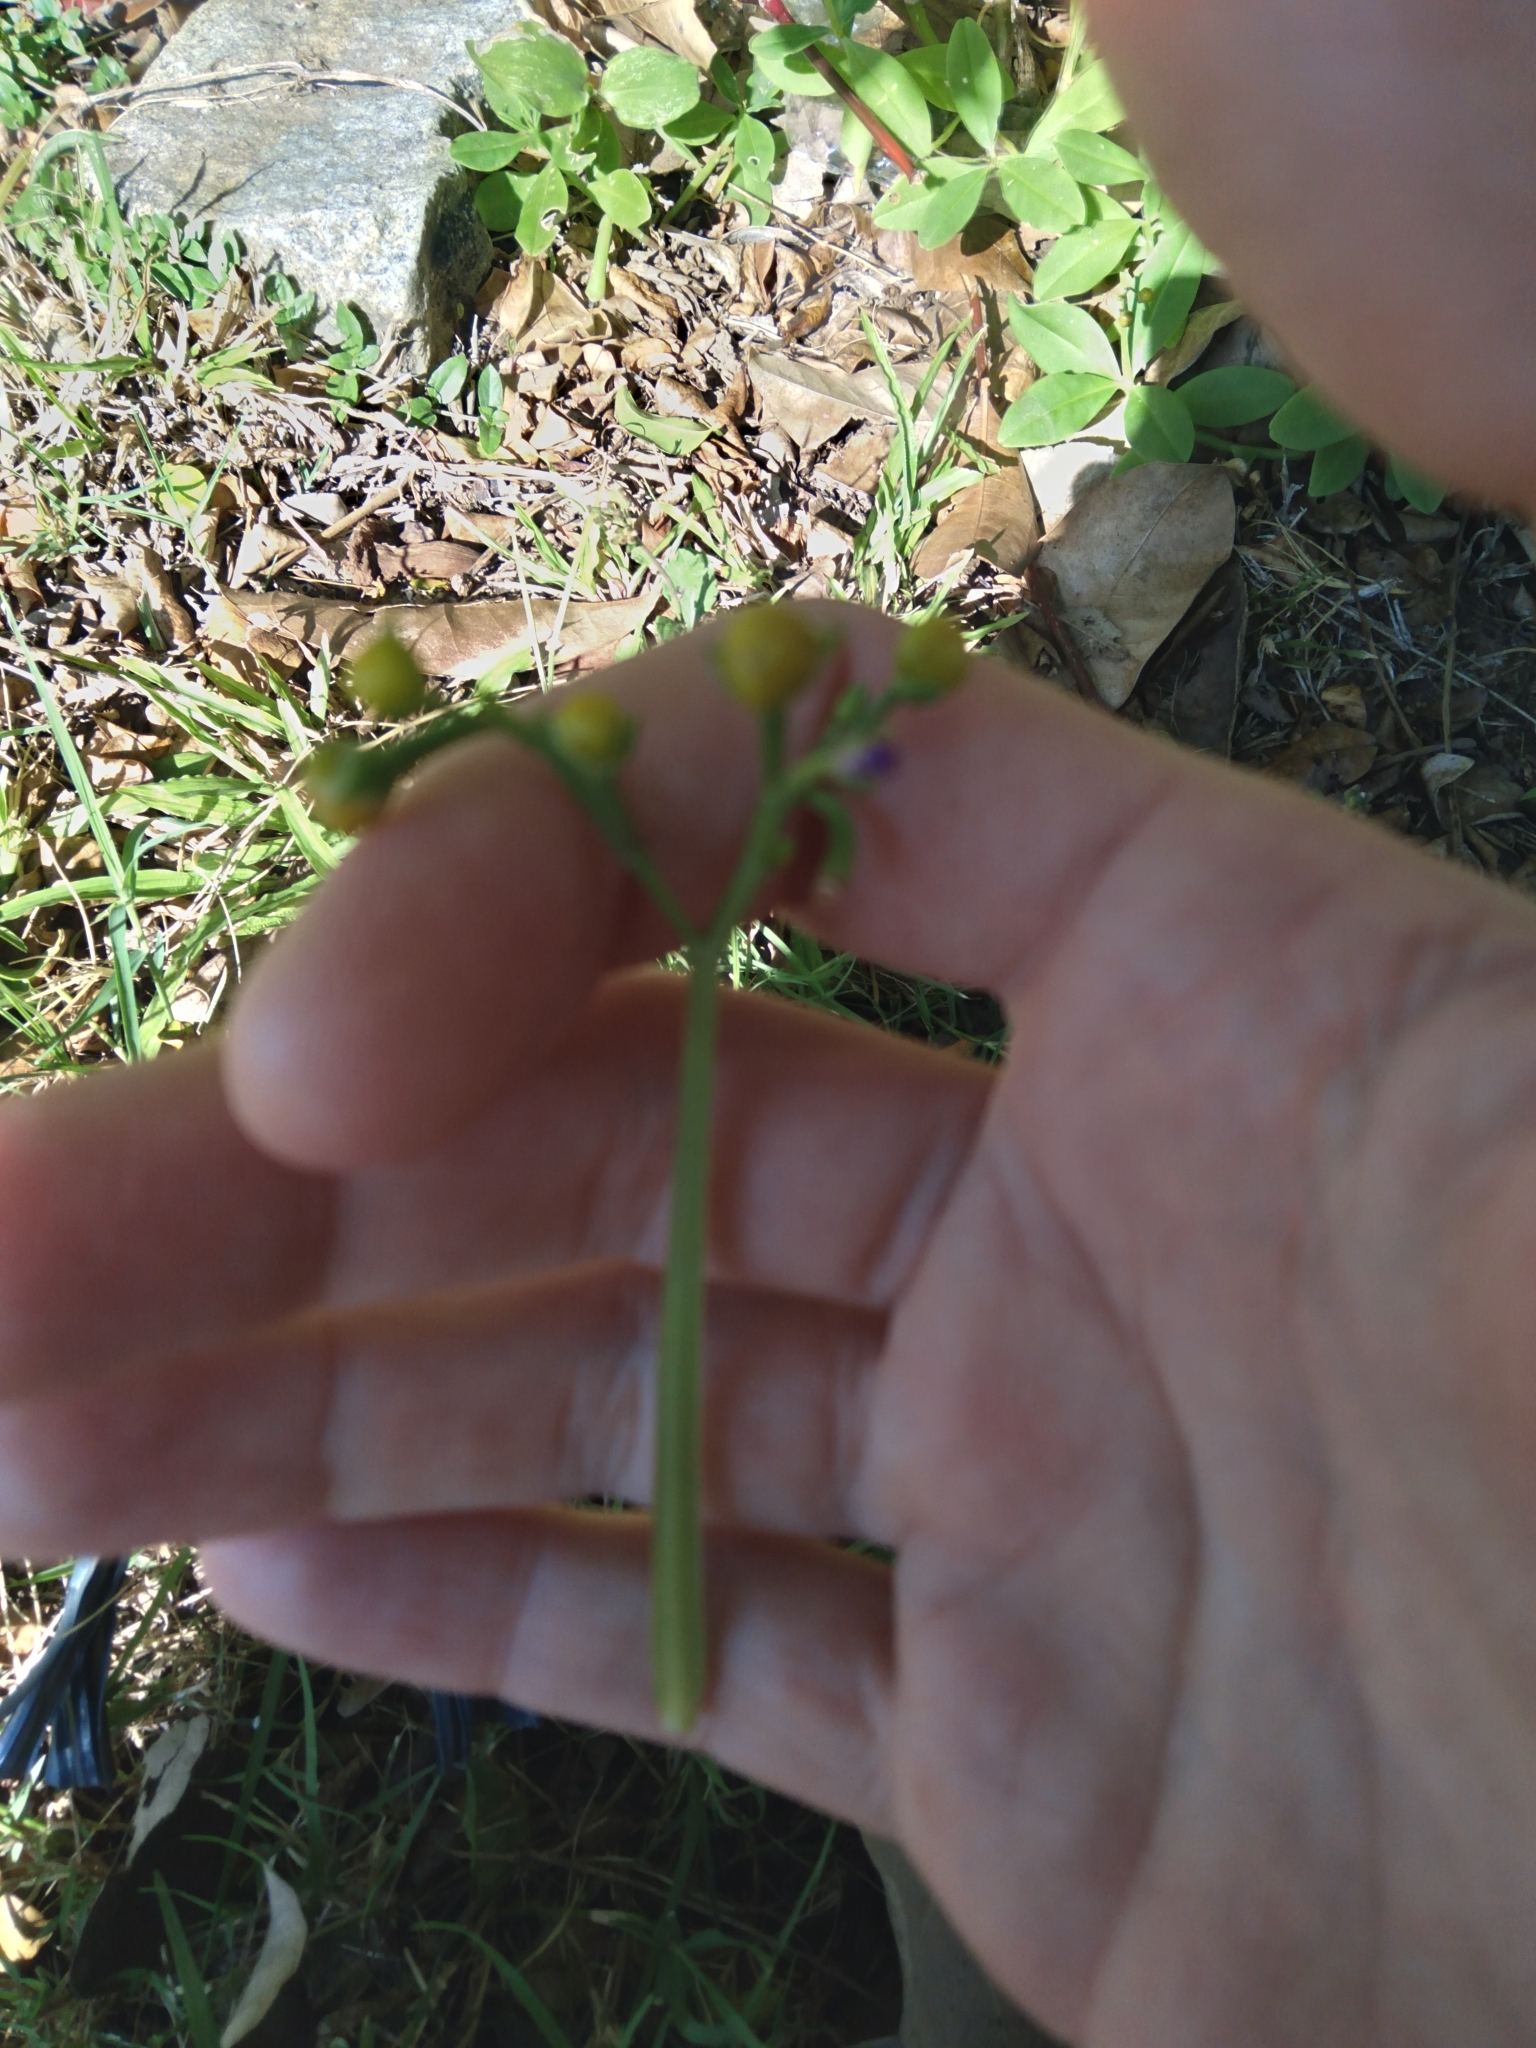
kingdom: Plantae
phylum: Tracheophyta
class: Magnoliopsida
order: Caryophyllales
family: Talinaceae
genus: Talinum
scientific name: Talinum fruticosum
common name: Verdolaga-francesa
